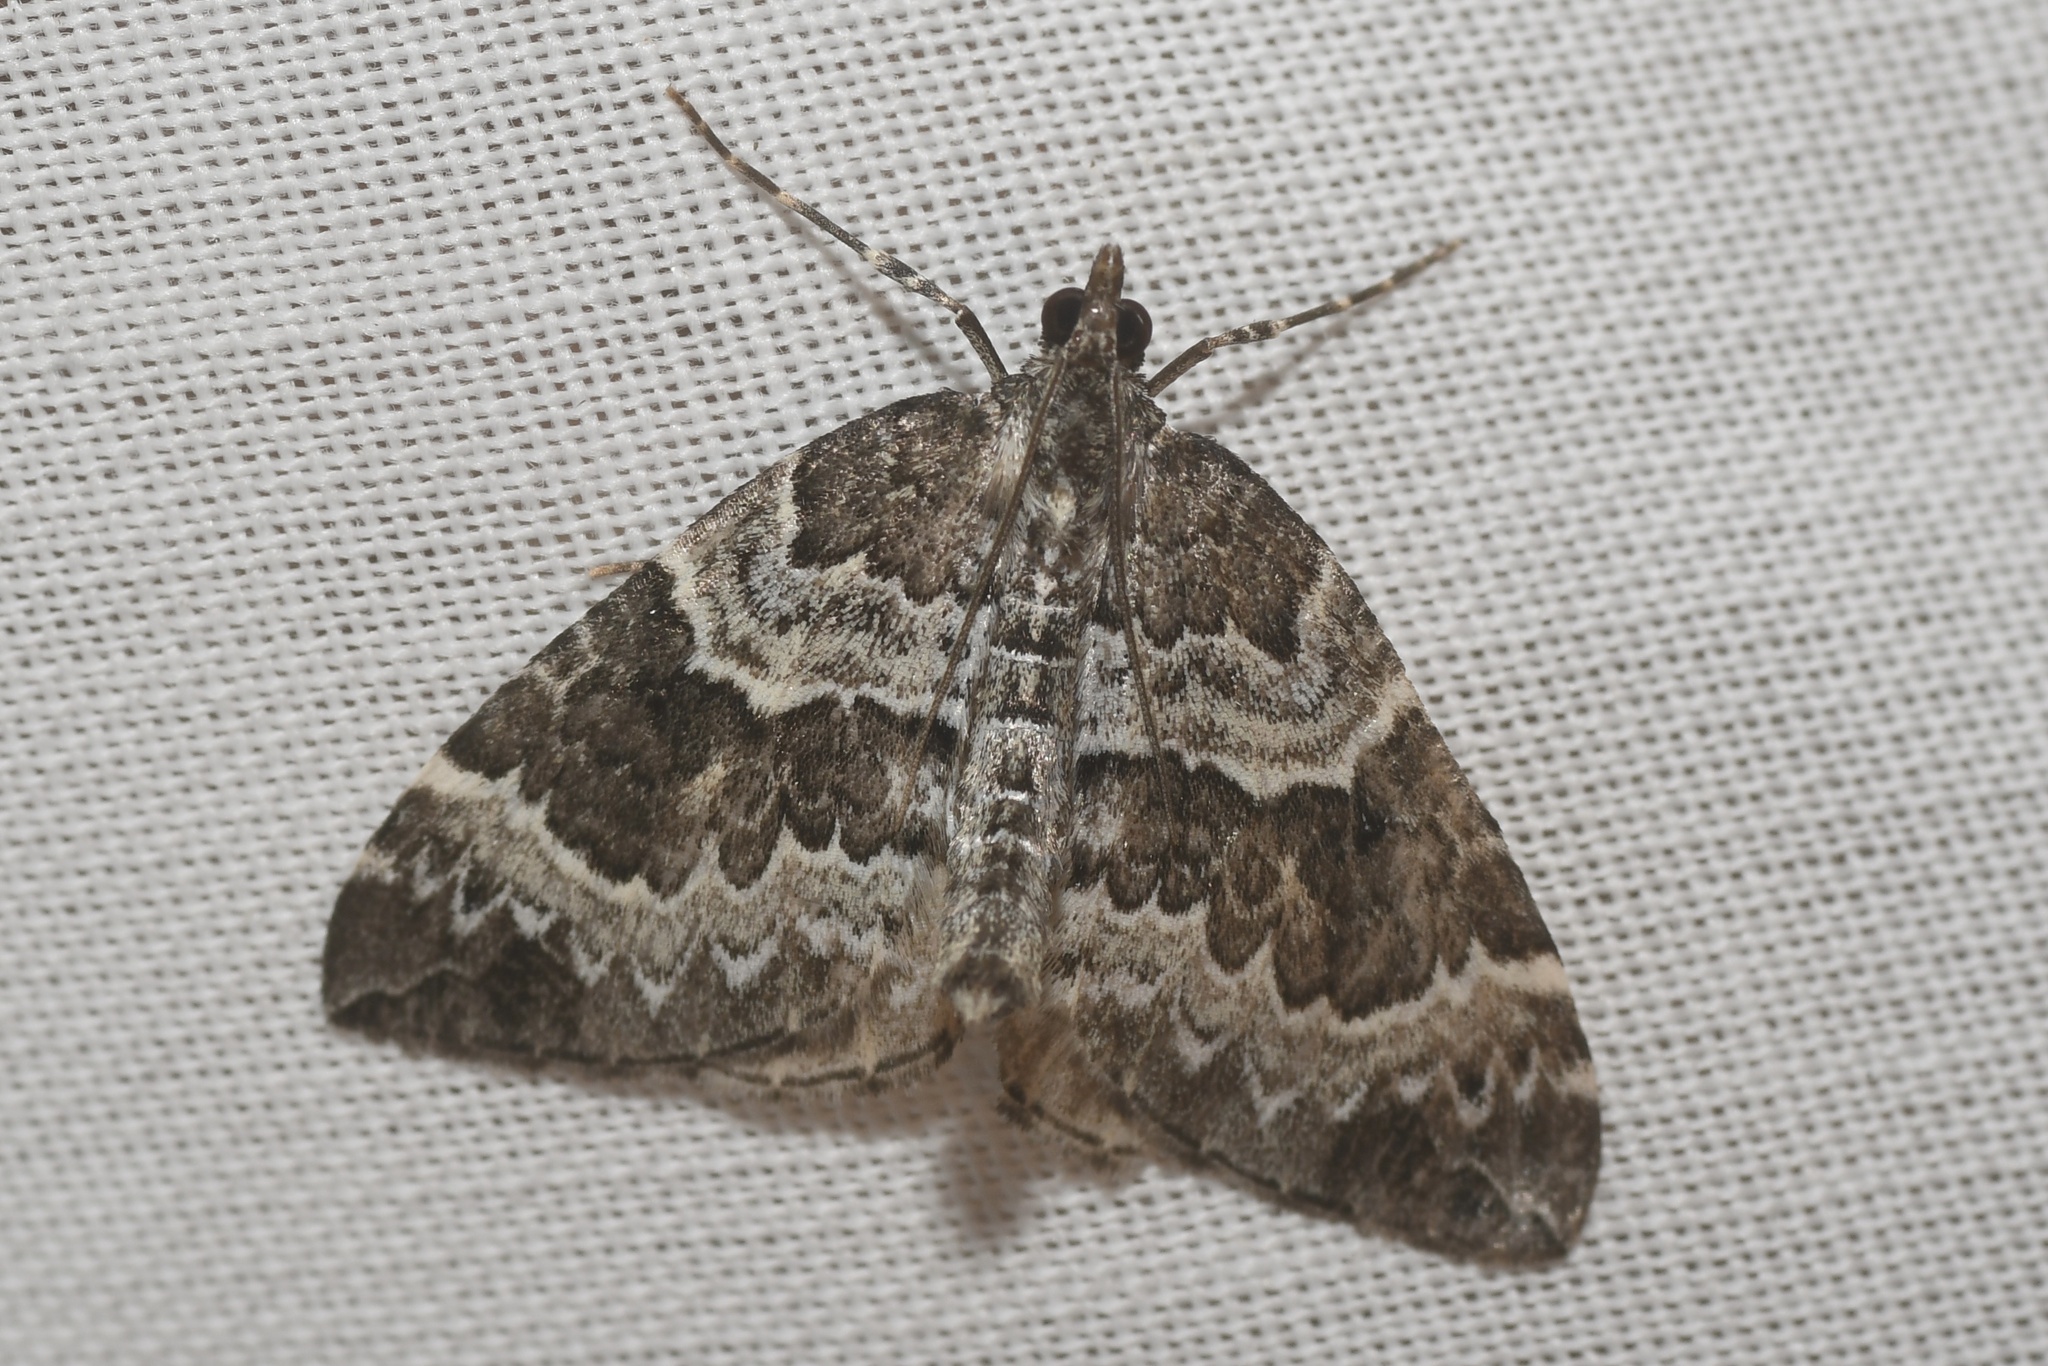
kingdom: Animalia
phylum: Arthropoda
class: Insecta
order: Lepidoptera
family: Geometridae
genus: Eulithis
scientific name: Eulithis explanata
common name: White eulithis
